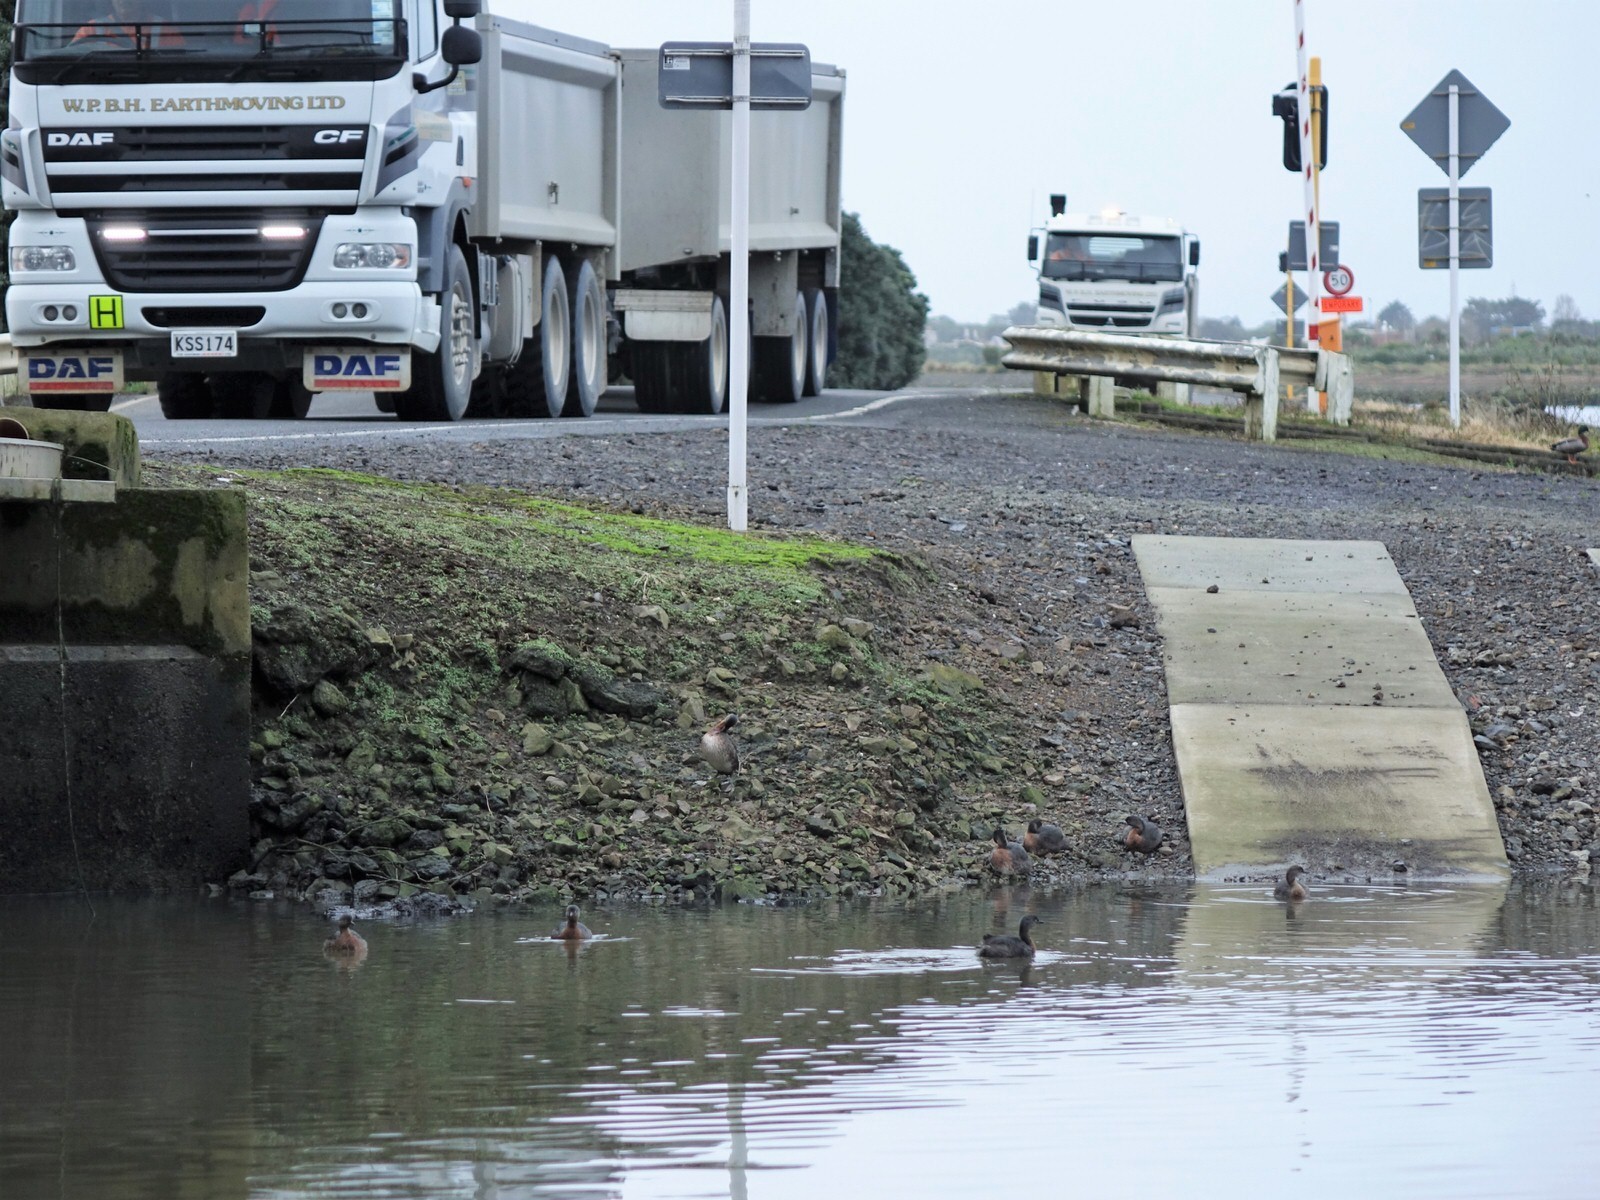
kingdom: Animalia
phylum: Chordata
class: Aves
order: Podicipediformes
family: Podicipedidae
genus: Poliocephalus
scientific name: Poliocephalus rufopectus
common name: New zealand grebe
